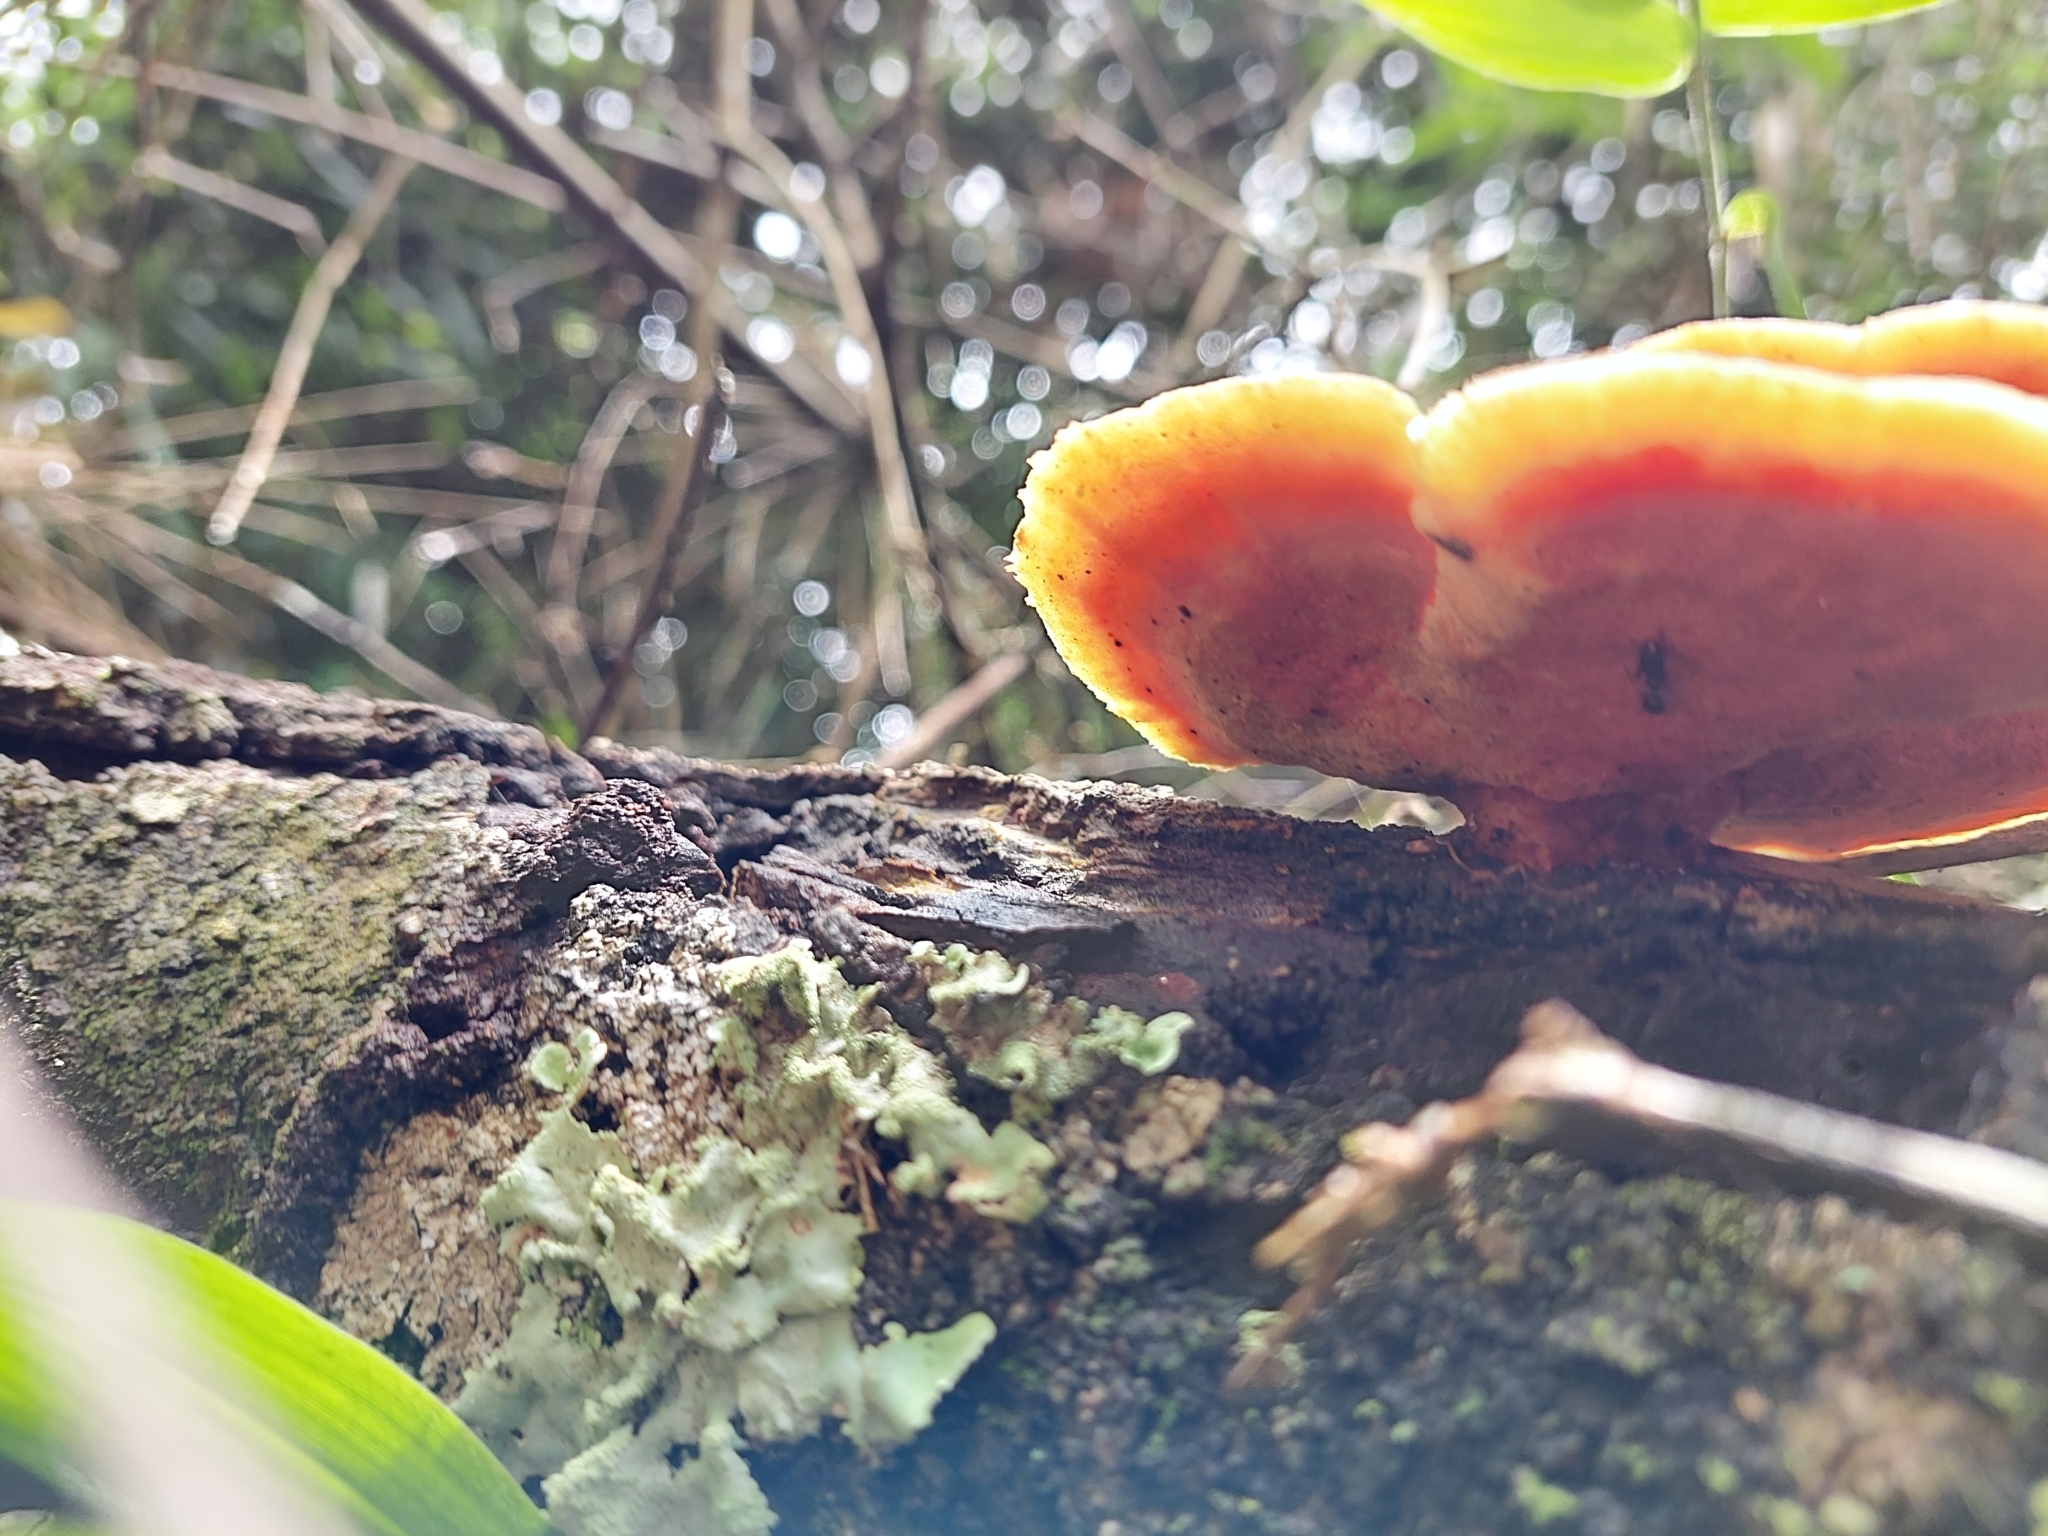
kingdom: Fungi
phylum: Basidiomycota
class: Agaricomycetes
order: Polyporales
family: Polyporaceae
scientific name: Polyporaceae
